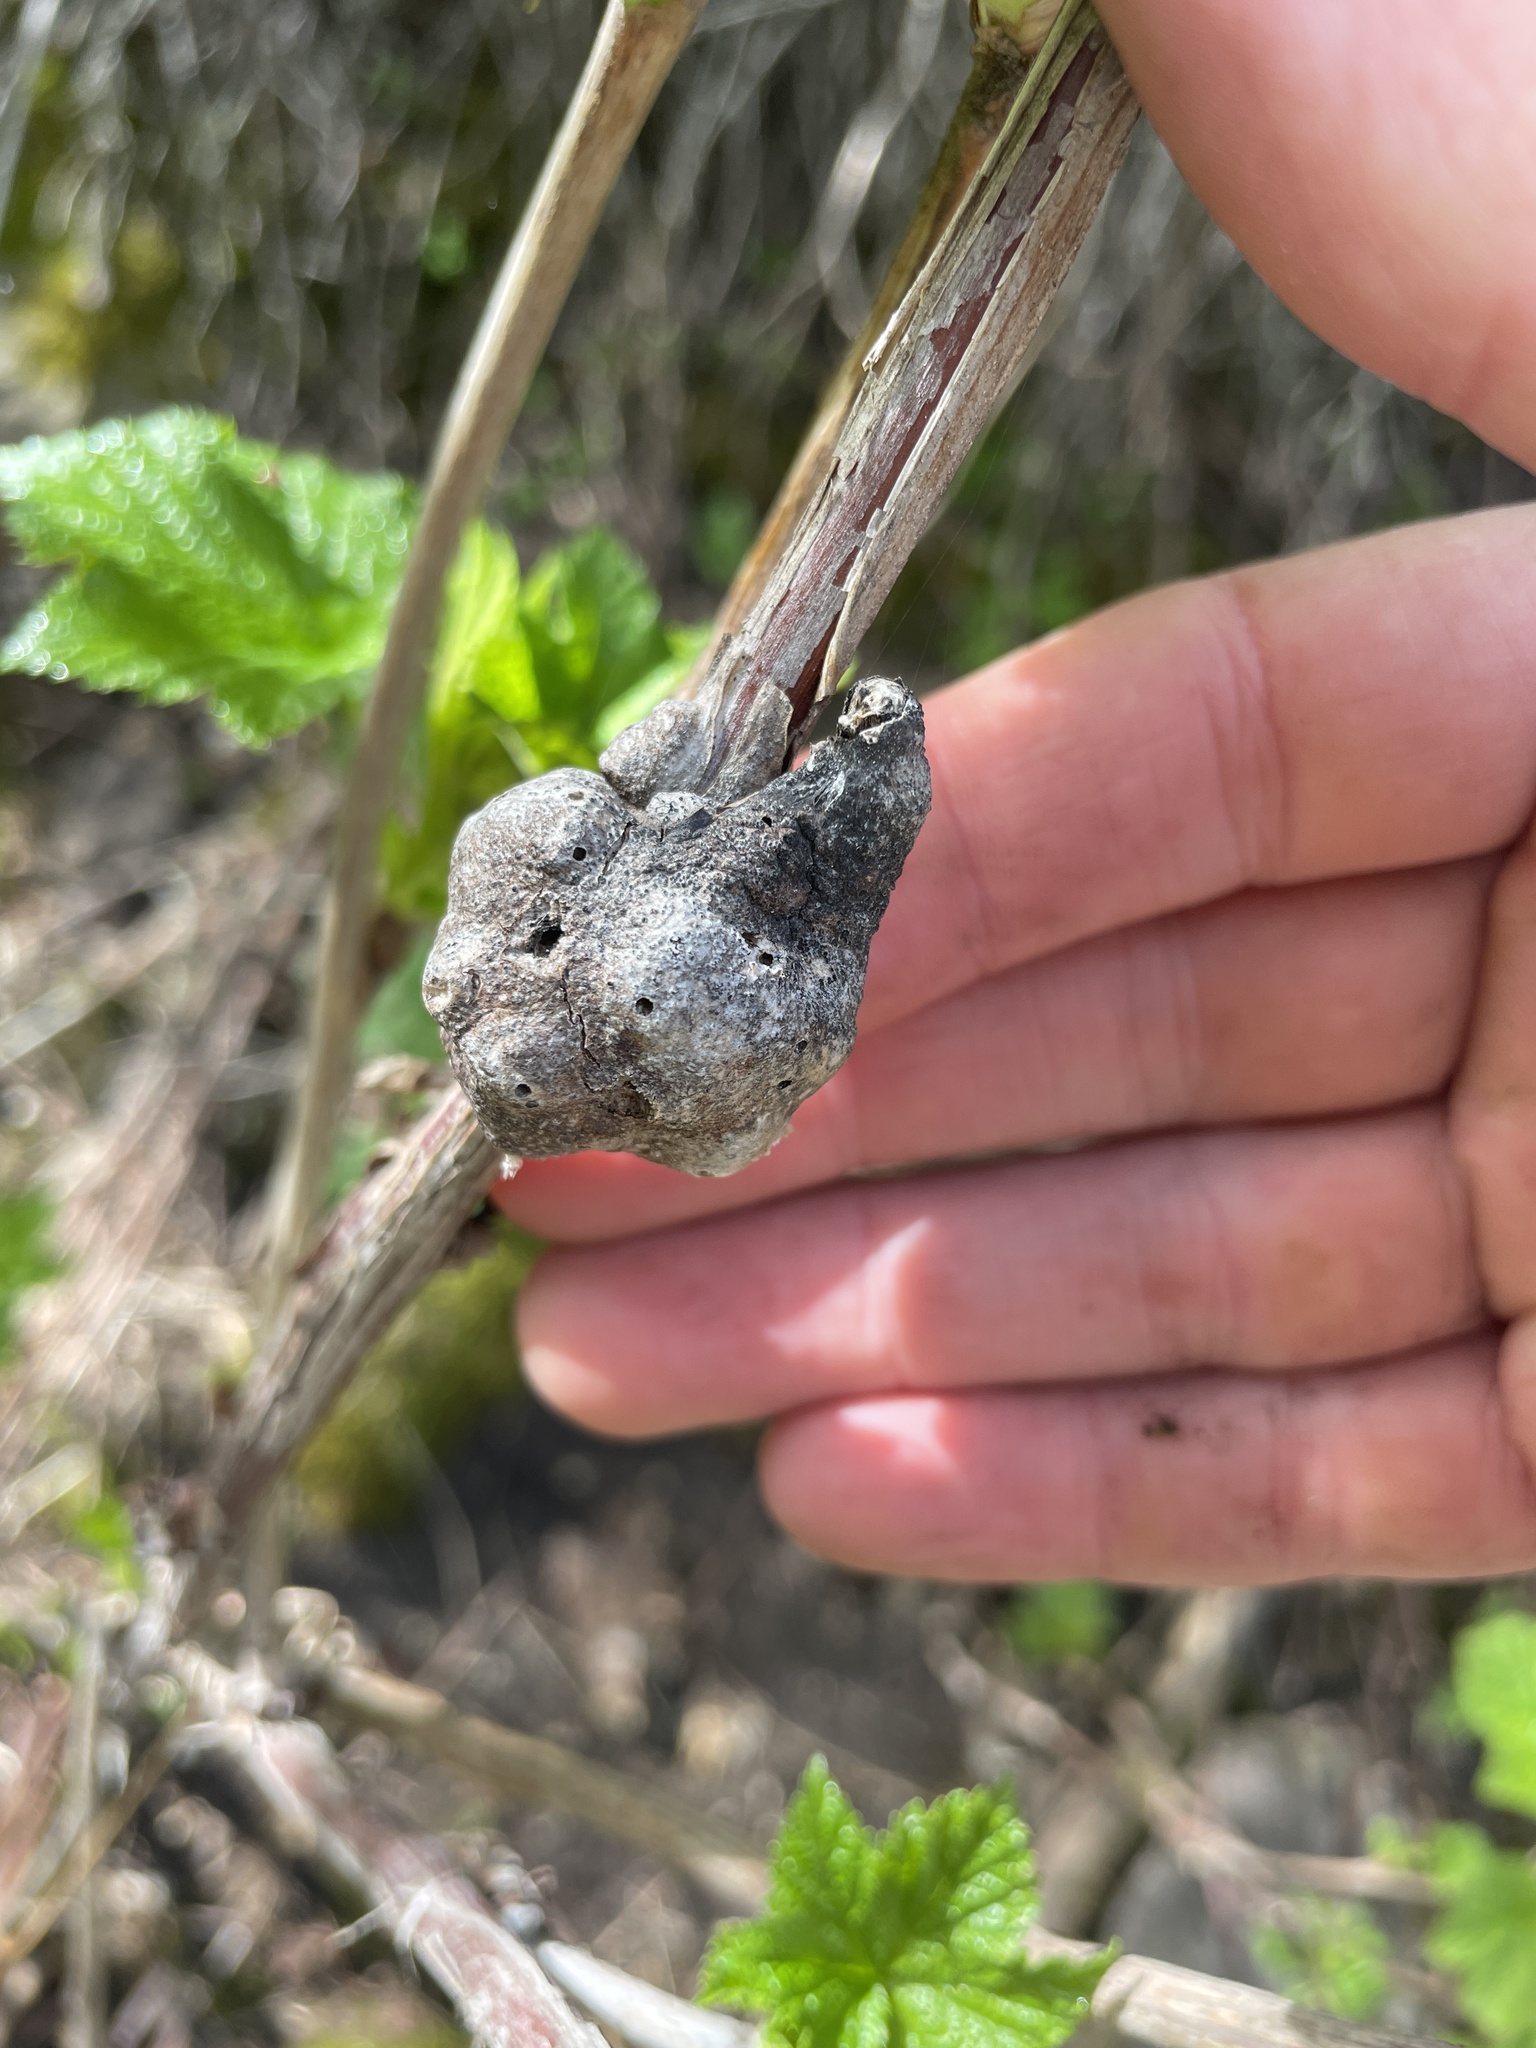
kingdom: Animalia
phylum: Arthropoda
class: Insecta
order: Hymenoptera
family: Cynipidae
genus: Diastrophus
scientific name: Diastrophus
